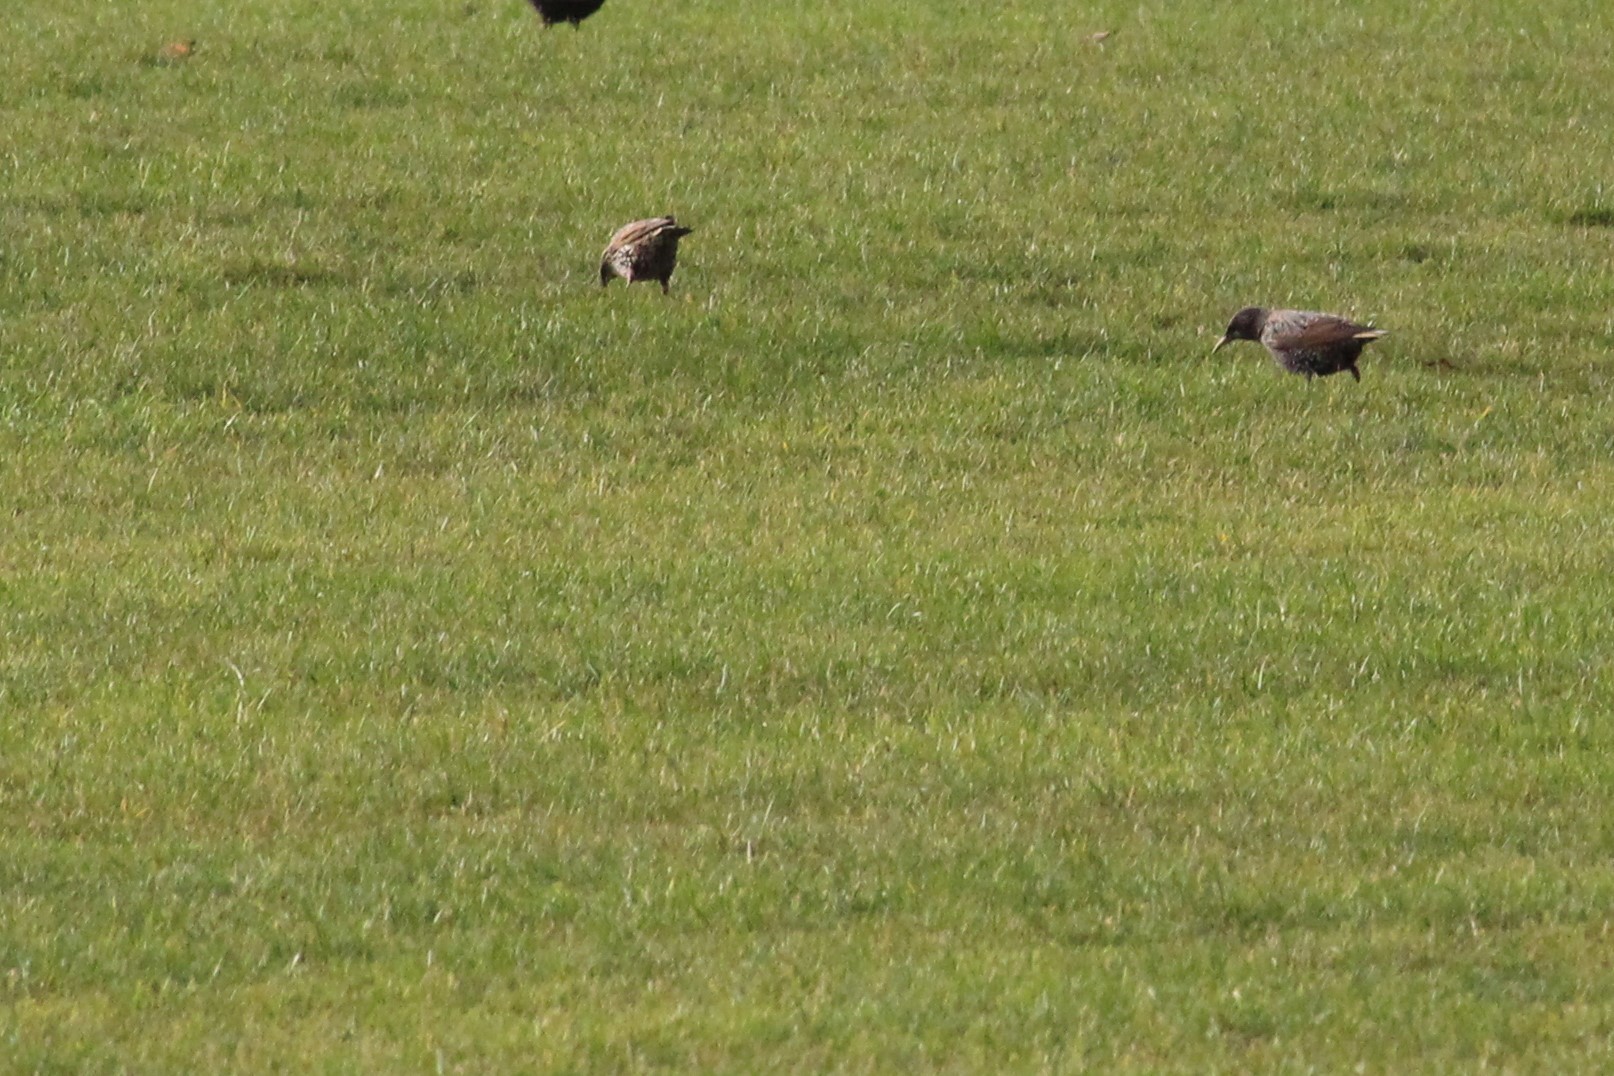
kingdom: Animalia
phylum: Chordata
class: Aves
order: Passeriformes
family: Sturnidae
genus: Sturnus
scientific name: Sturnus vulgaris
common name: Common starling
